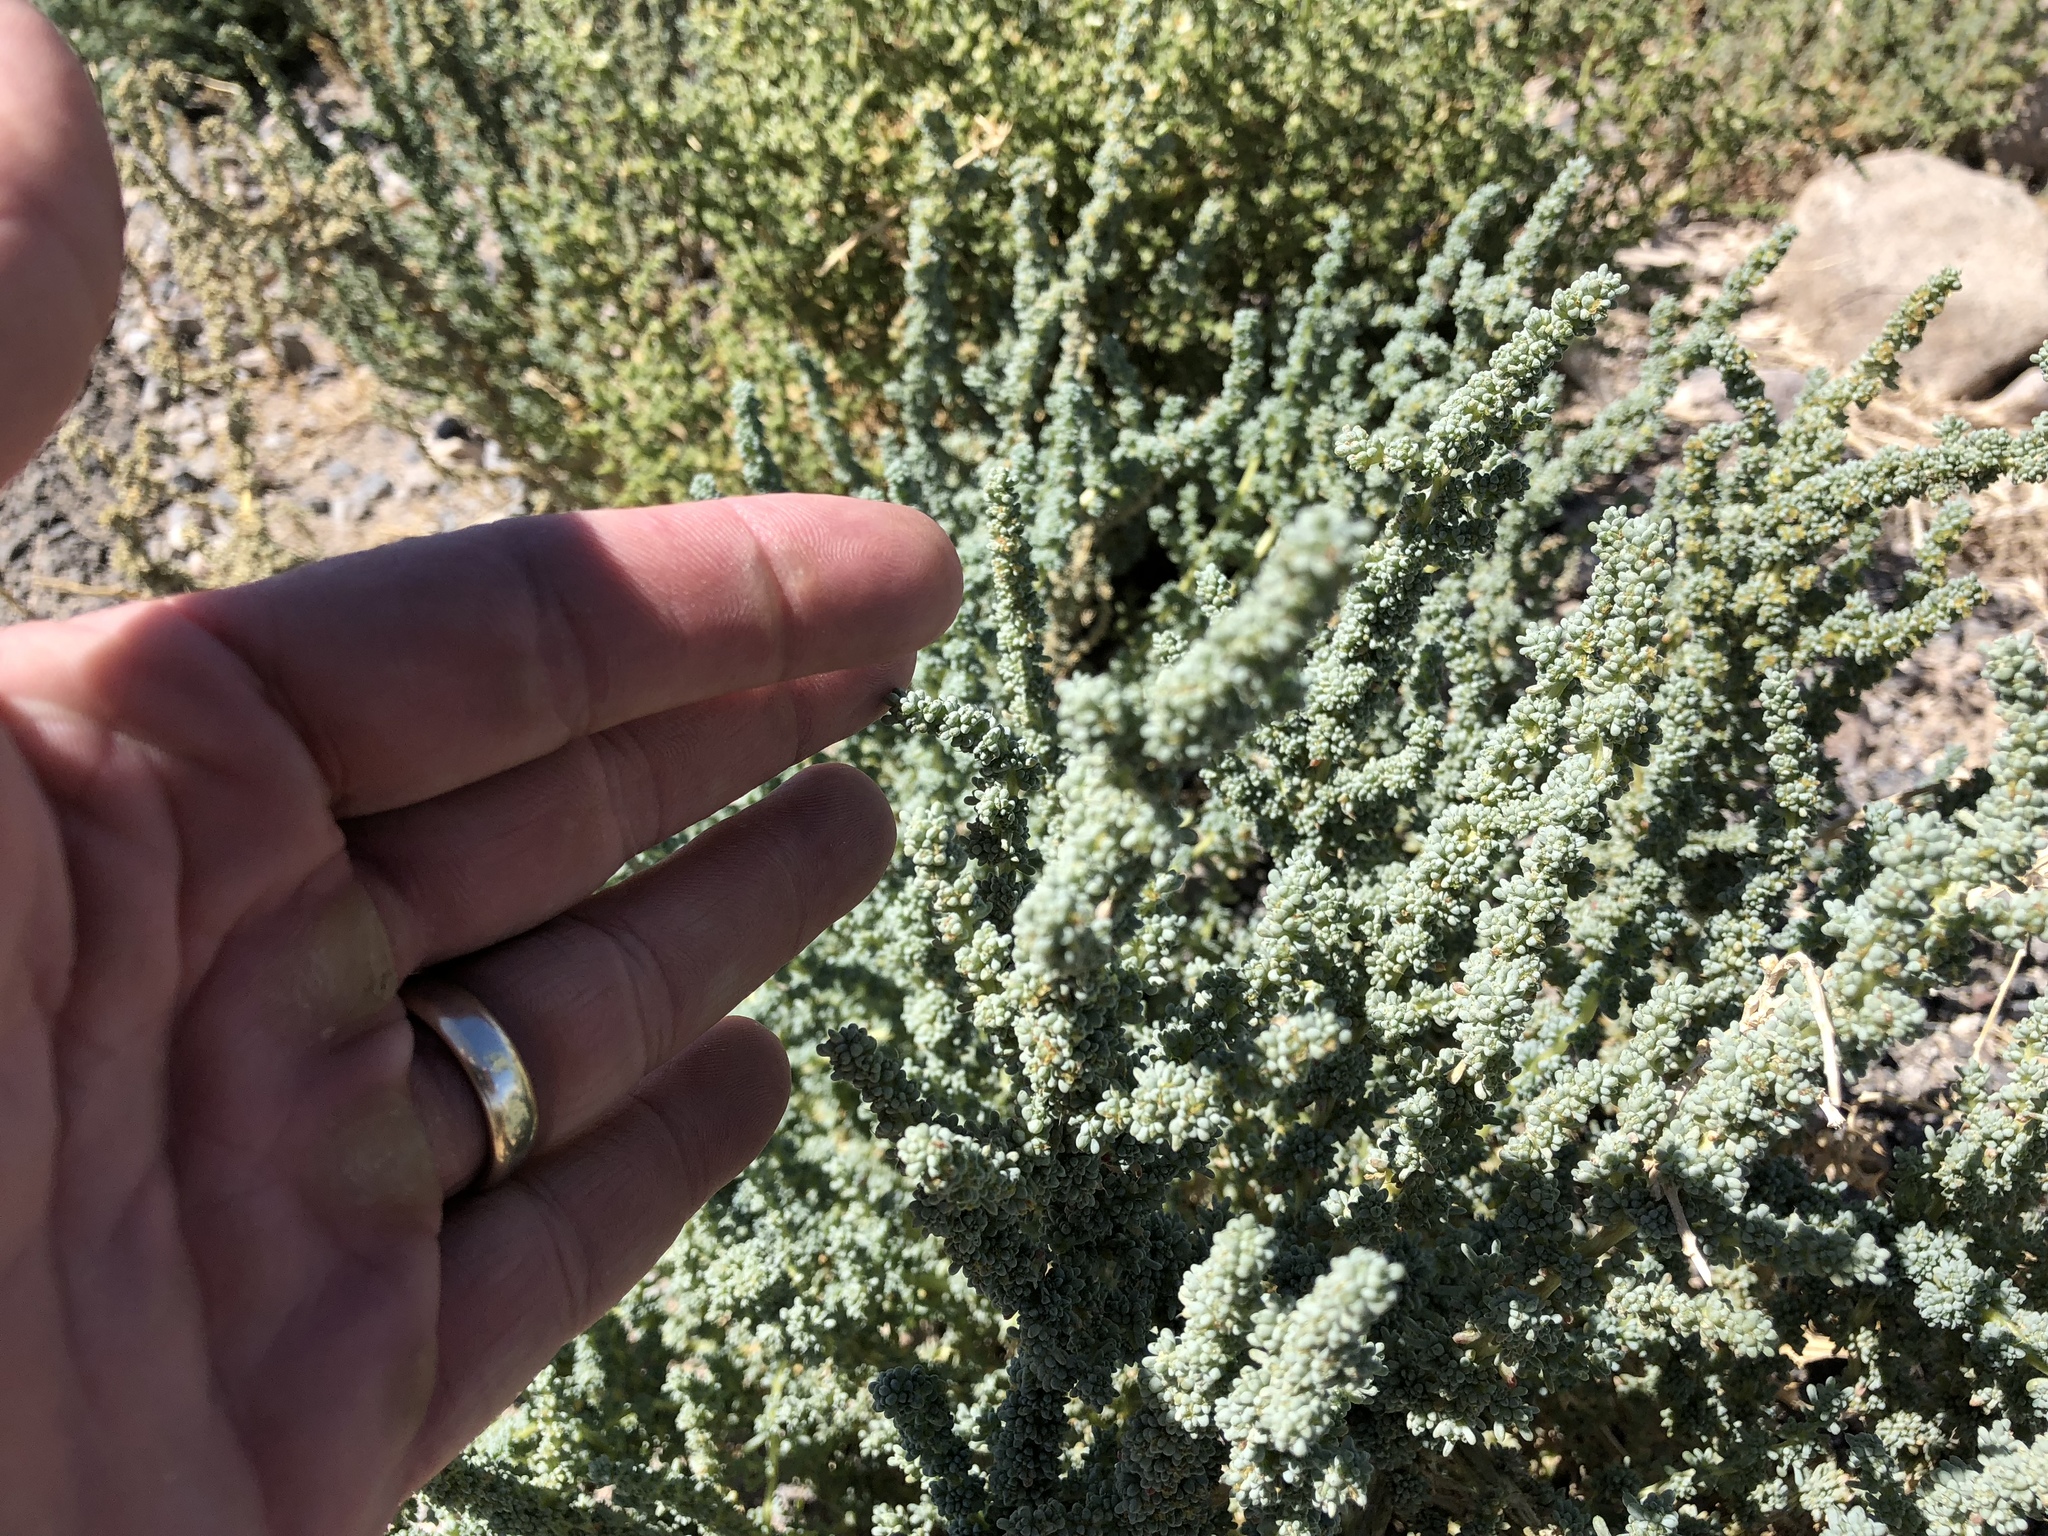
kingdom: Plantae
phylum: Tracheophyta
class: Magnoliopsida
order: Caryophyllales
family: Amaranthaceae
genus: Halogeton
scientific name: Halogeton glomeratus
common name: Saltlover
